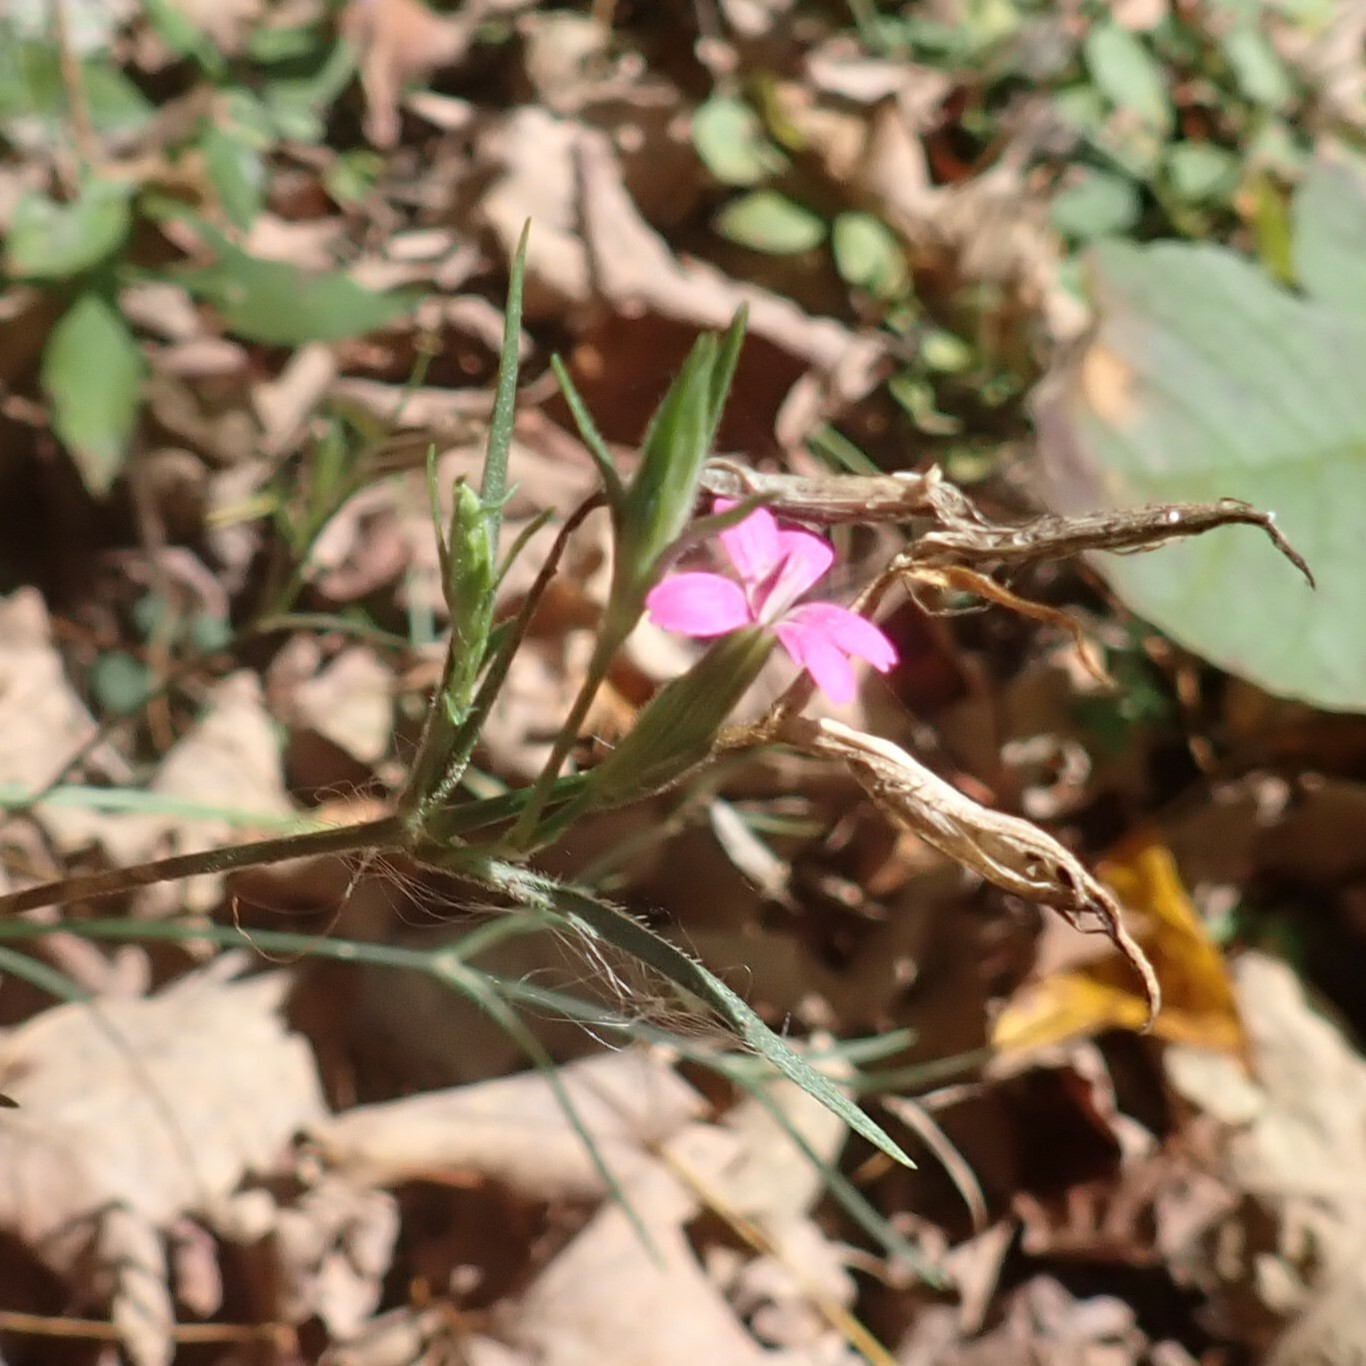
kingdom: Plantae
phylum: Tracheophyta
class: Magnoliopsida
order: Caryophyllales
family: Caryophyllaceae
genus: Dianthus
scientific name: Dianthus armeria
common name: Deptford pink
